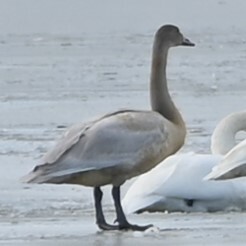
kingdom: Animalia
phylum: Chordata
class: Aves
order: Anseriformes
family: Anatidae
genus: Cygnus
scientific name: Cygnus columbianus
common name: Tundra swan
